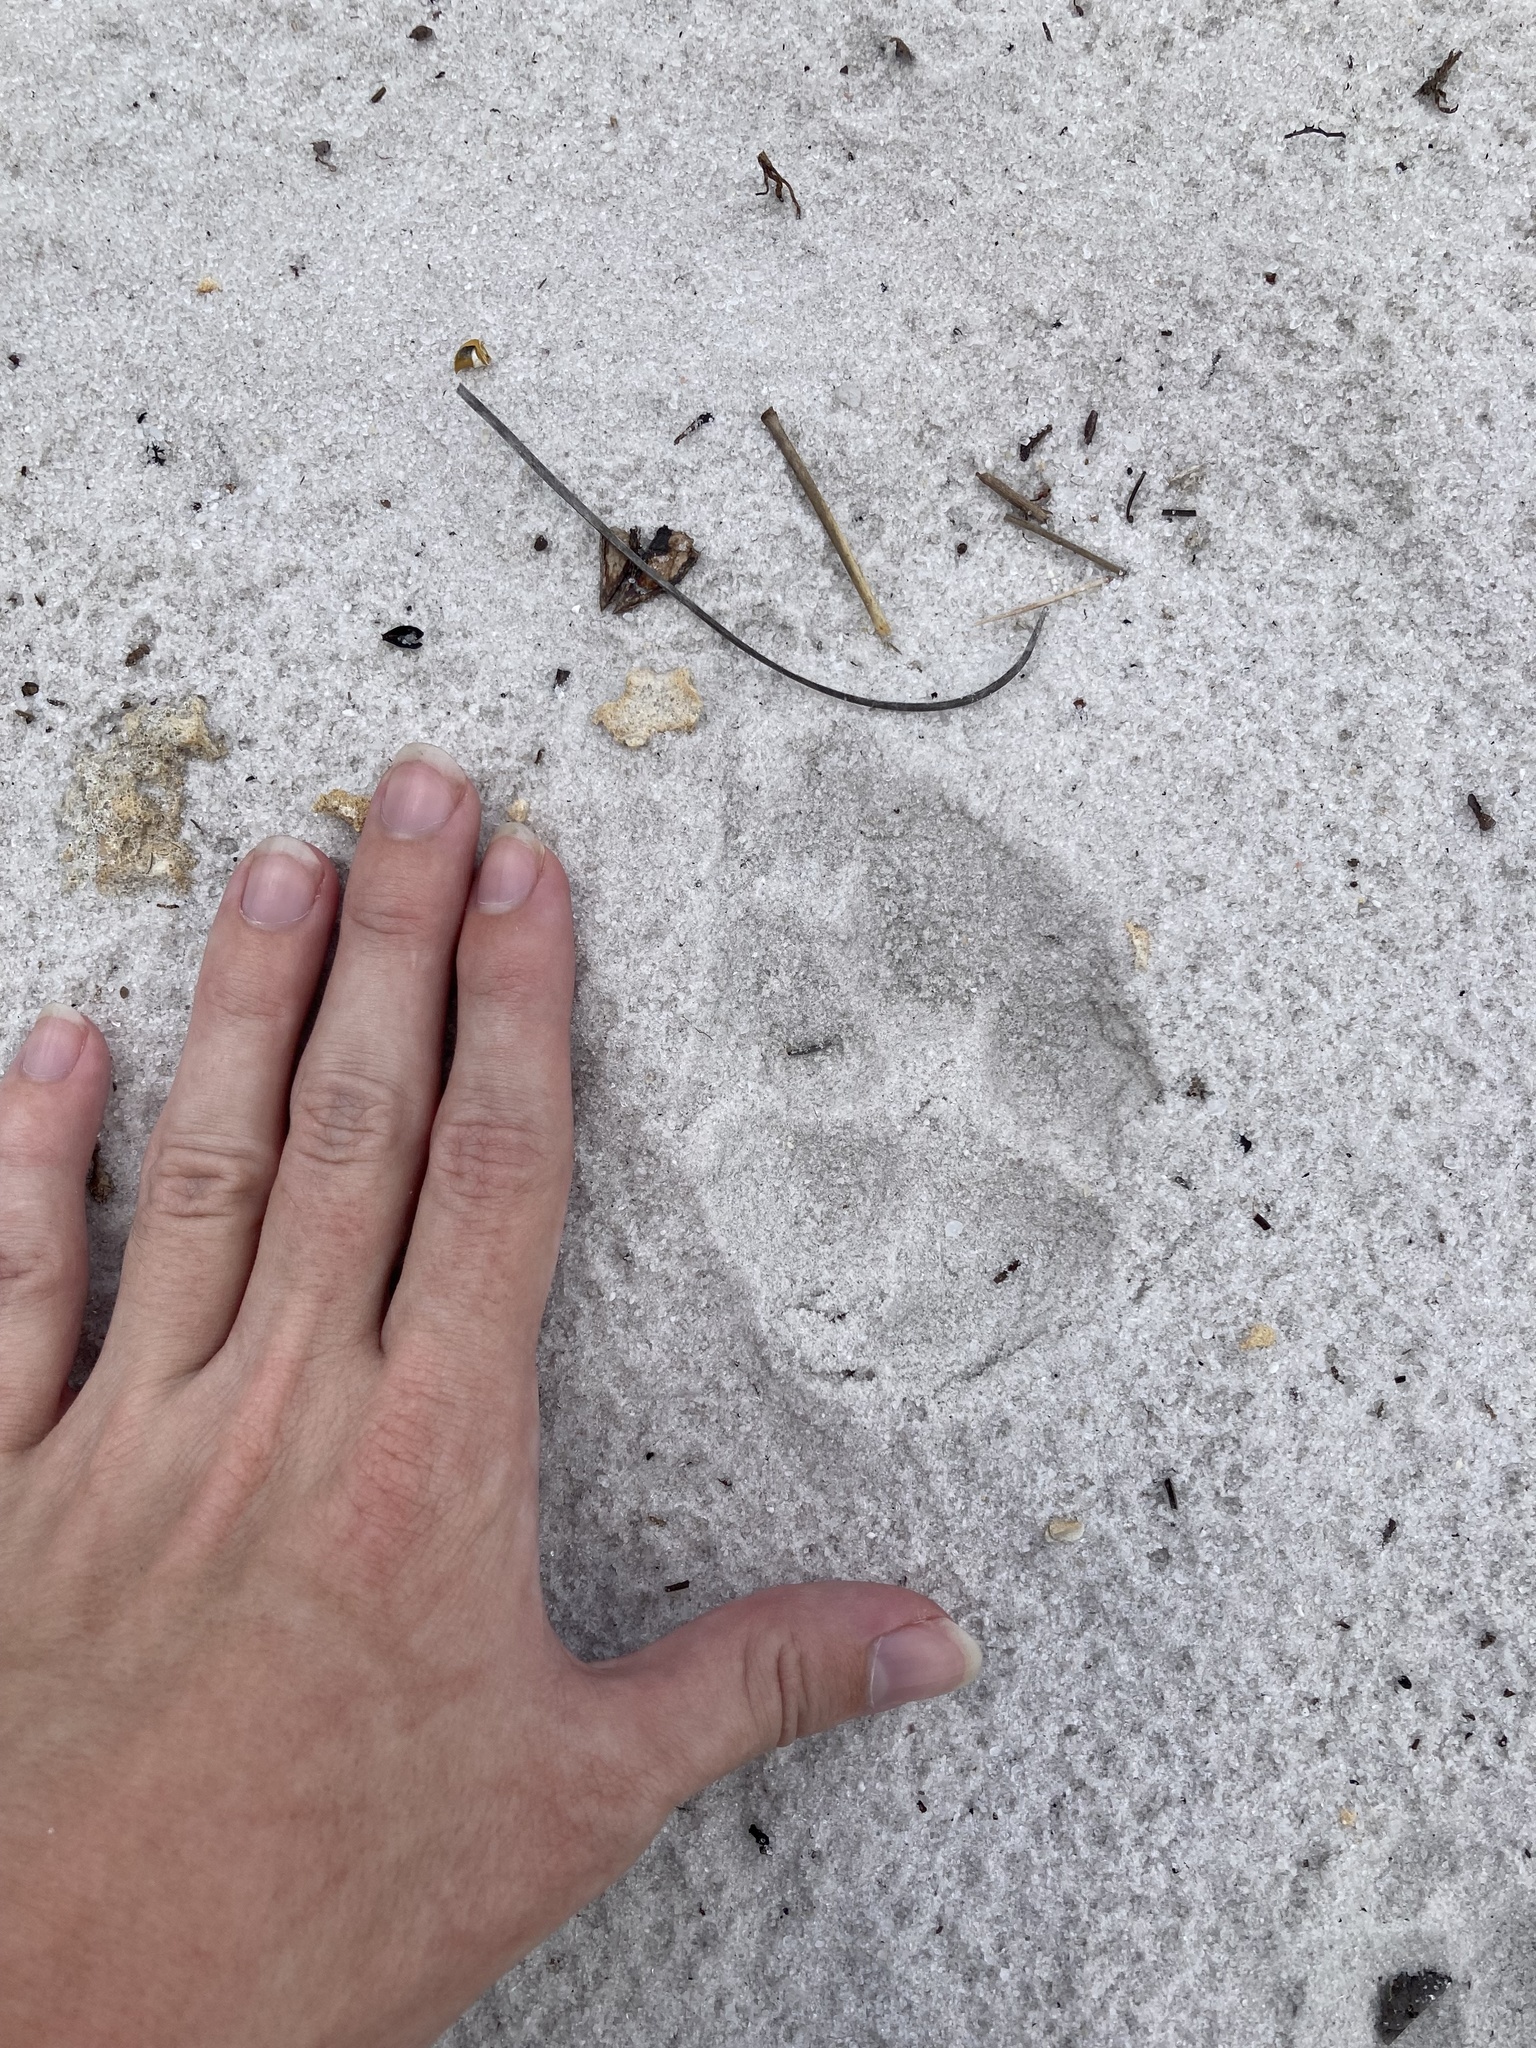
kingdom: Animalia
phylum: Chordata
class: Mammalia
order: Carnivora
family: Canidae
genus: Canis
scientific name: Canis latrans
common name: Coyote
